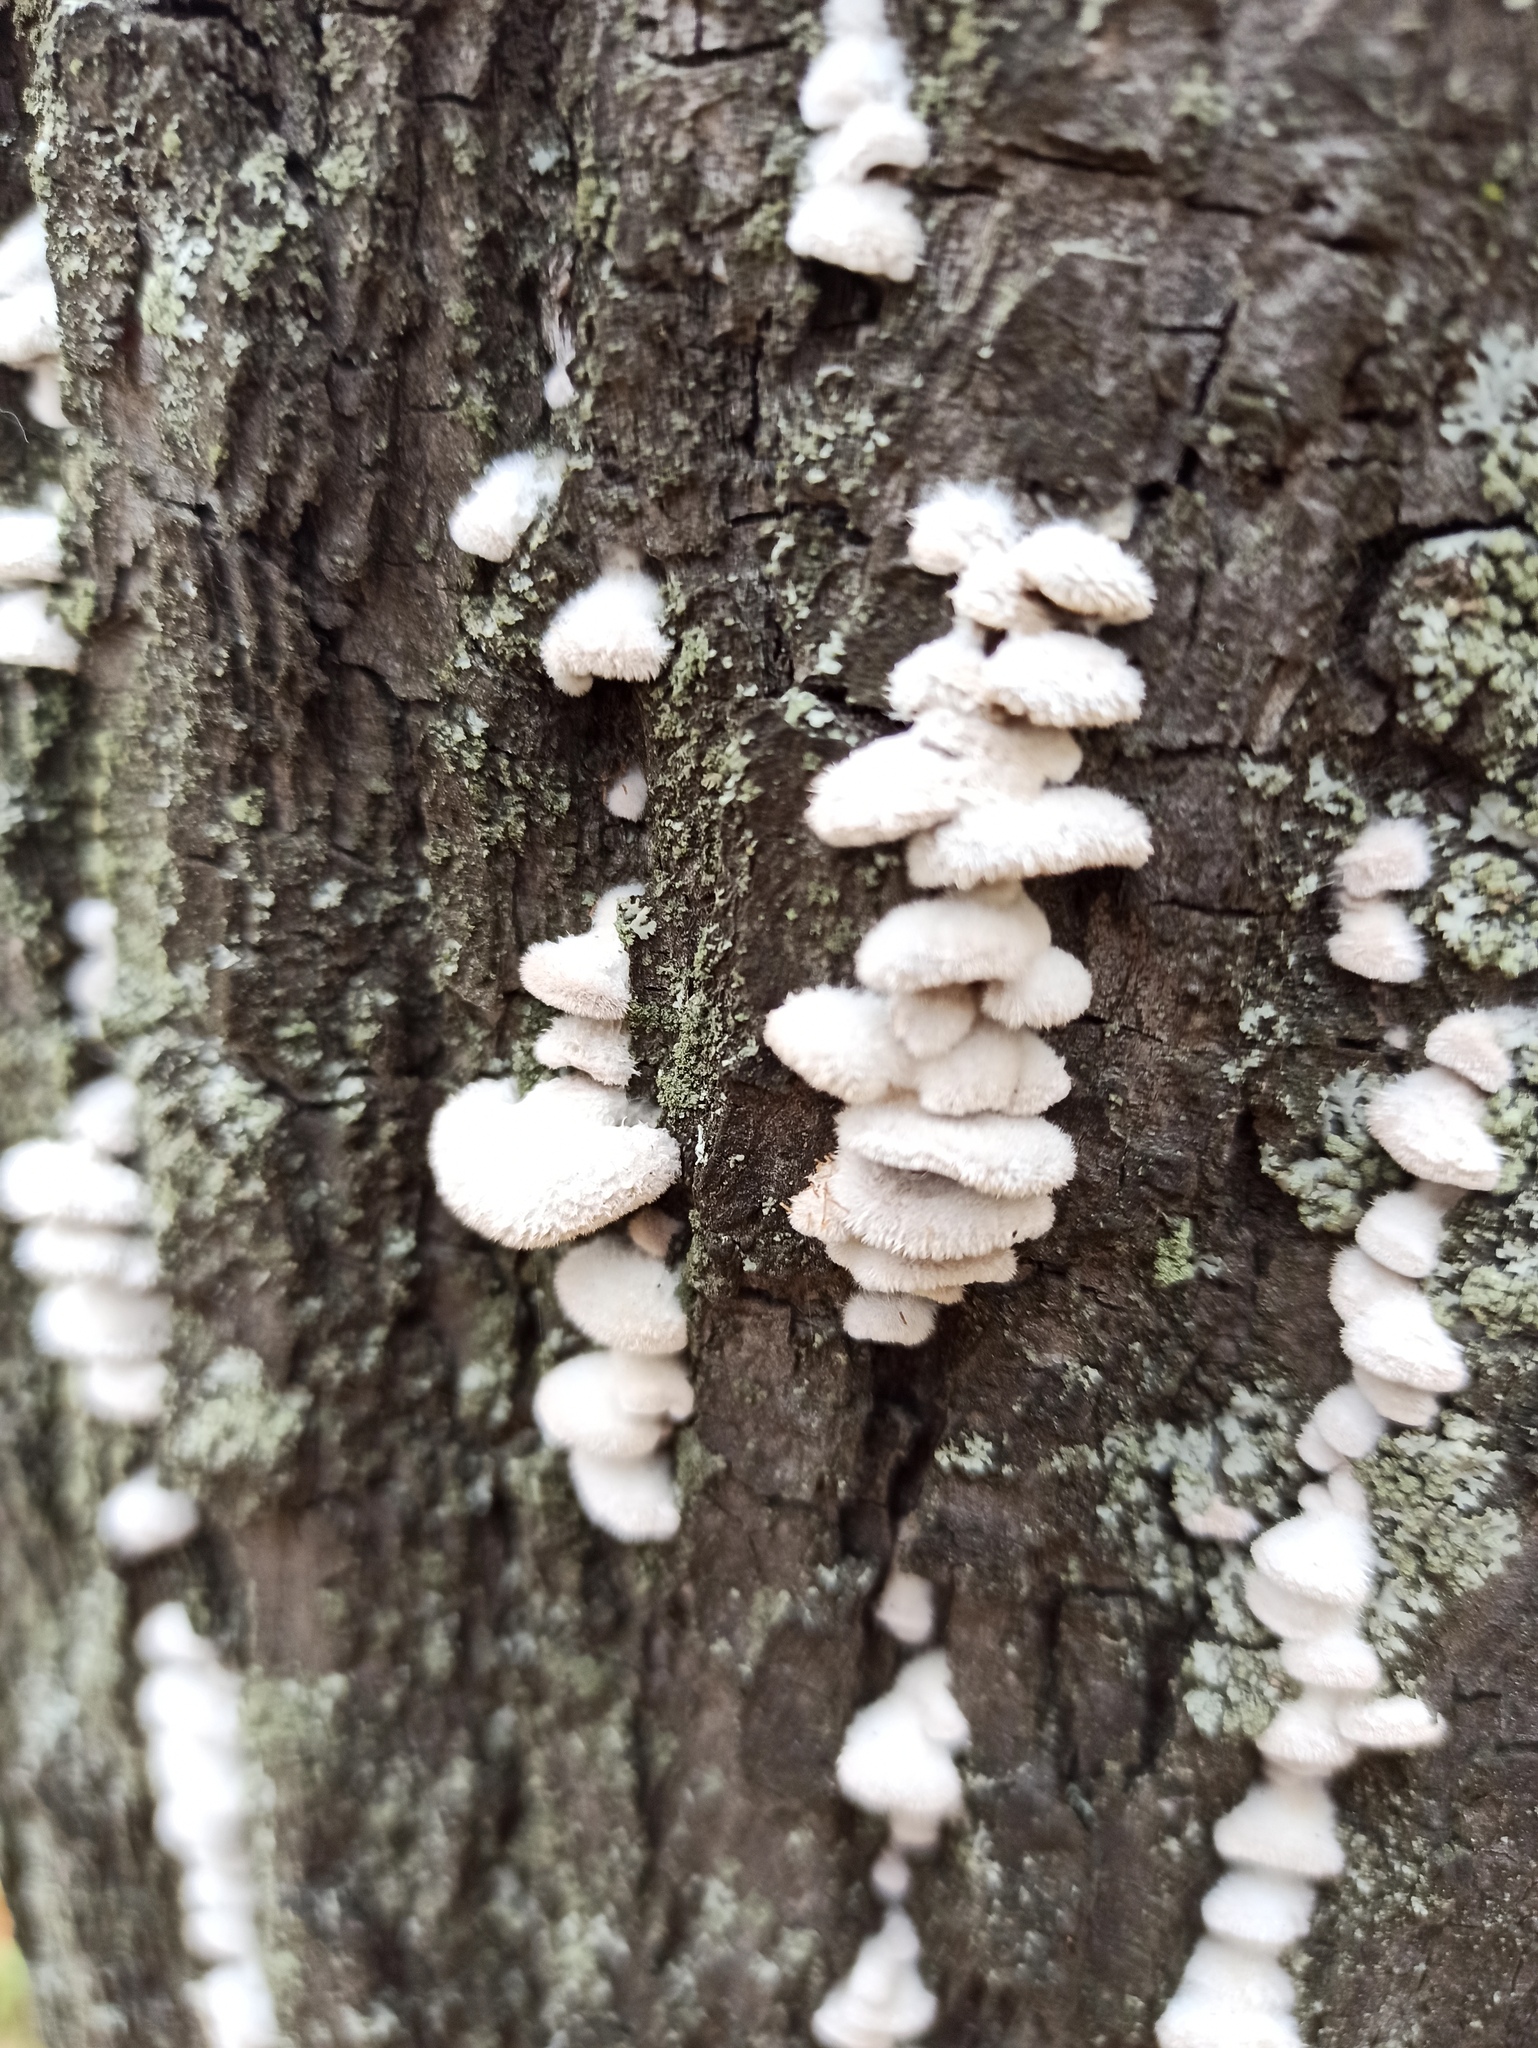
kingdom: Fungi
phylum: Basidiomycota
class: Agaricomycetes
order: Agaricales
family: Schizophyllaceae
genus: Schizophyllum
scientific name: Schizophyllum commune
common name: Common porecrust
